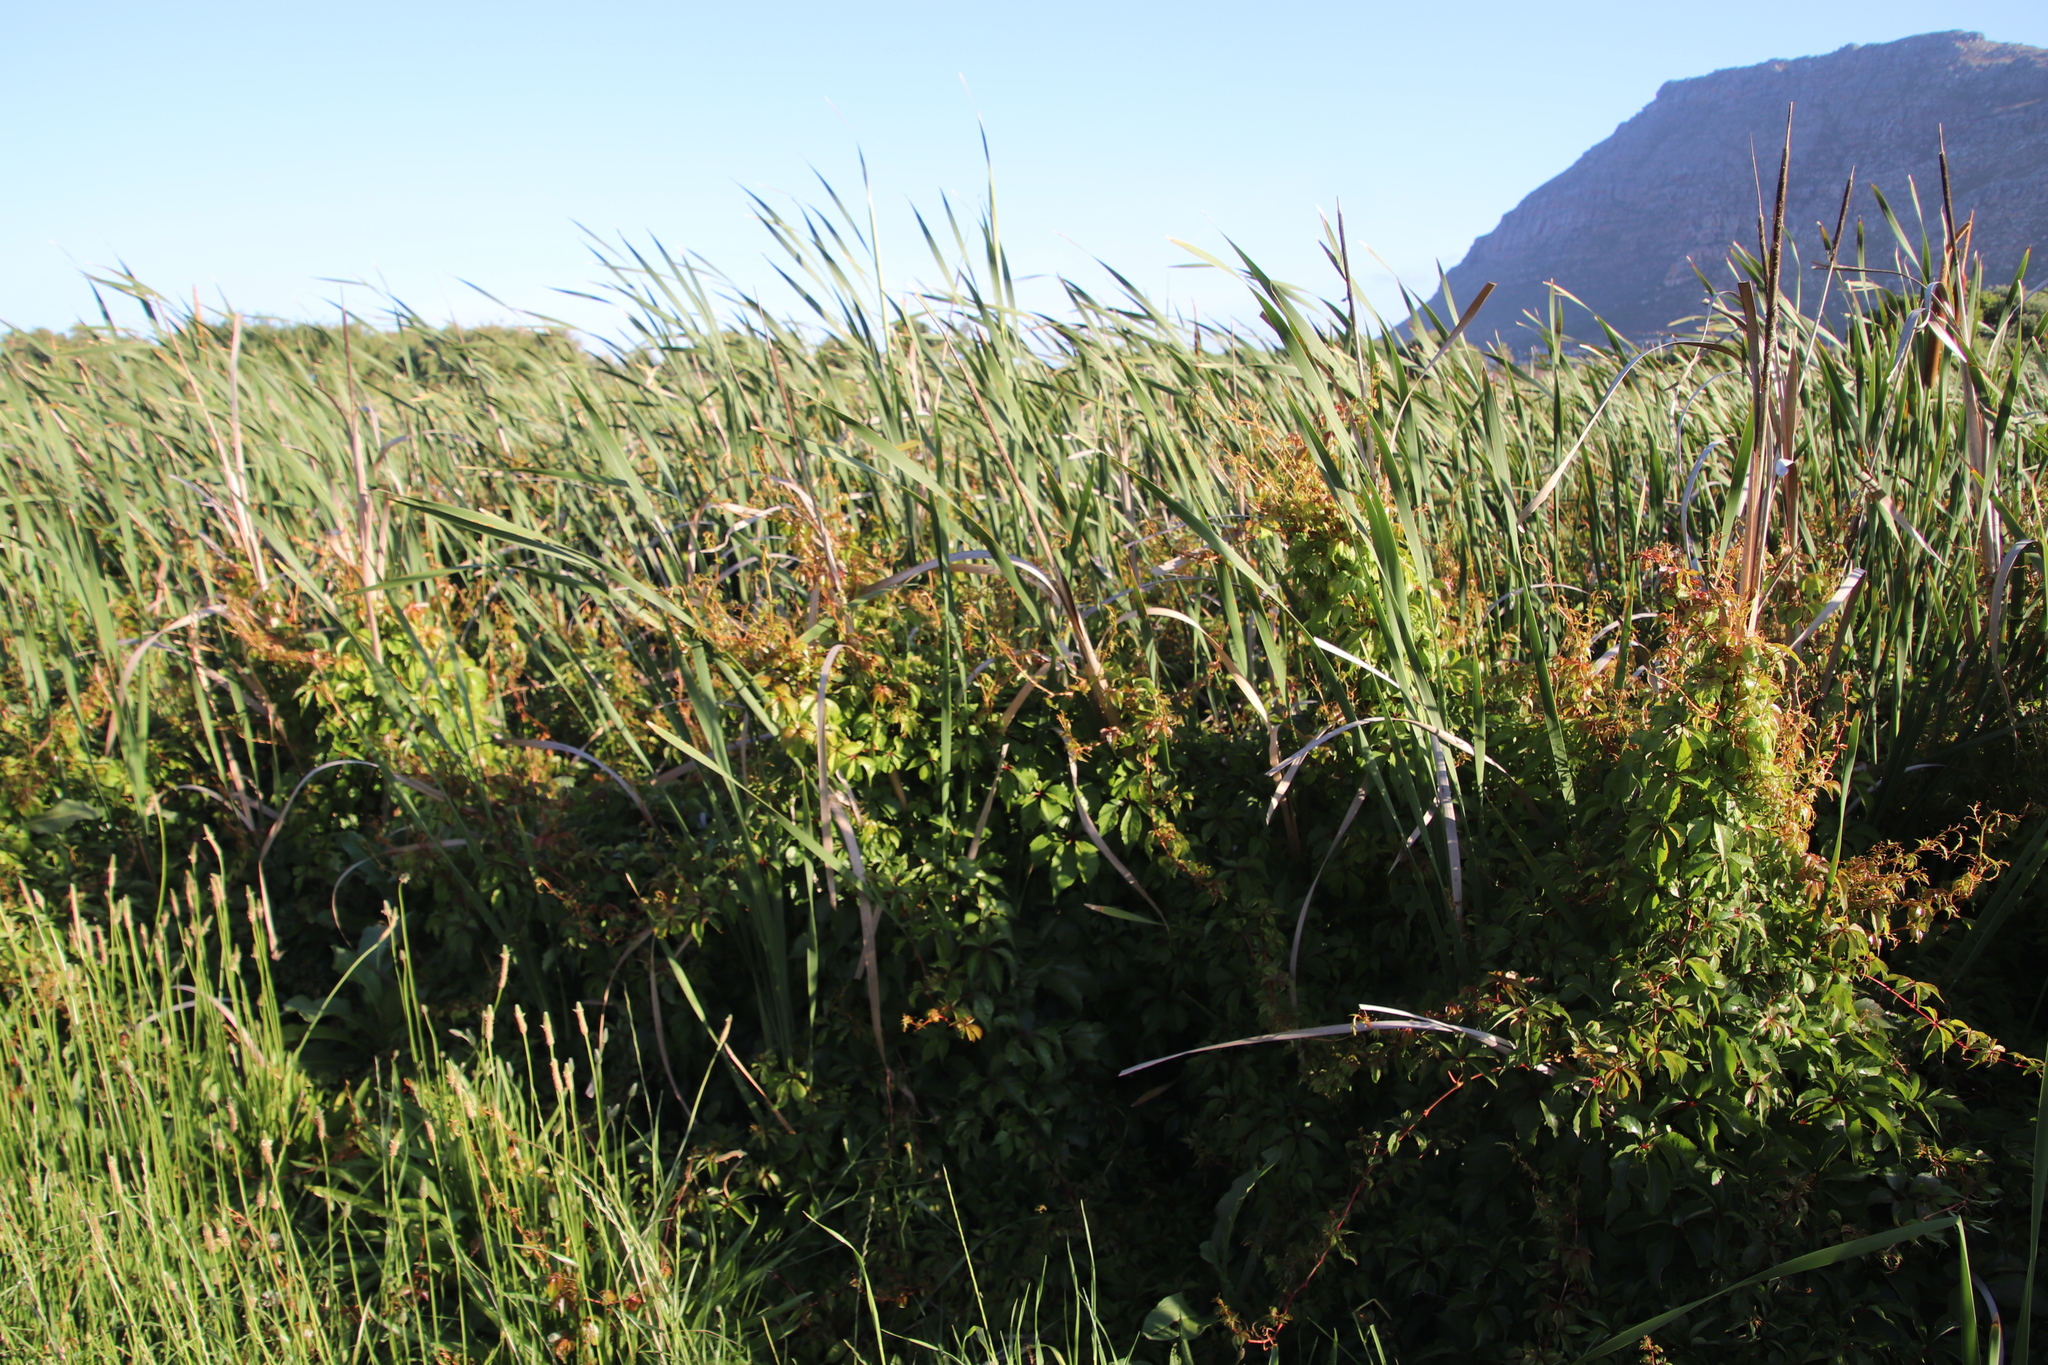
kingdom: Plantae
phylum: Tracheophyta
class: Magnoliopsida
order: Vitales
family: Vitaceae
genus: Parthenocissus
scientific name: Parthenocissus quinquefolia
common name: Virginia-creeper
